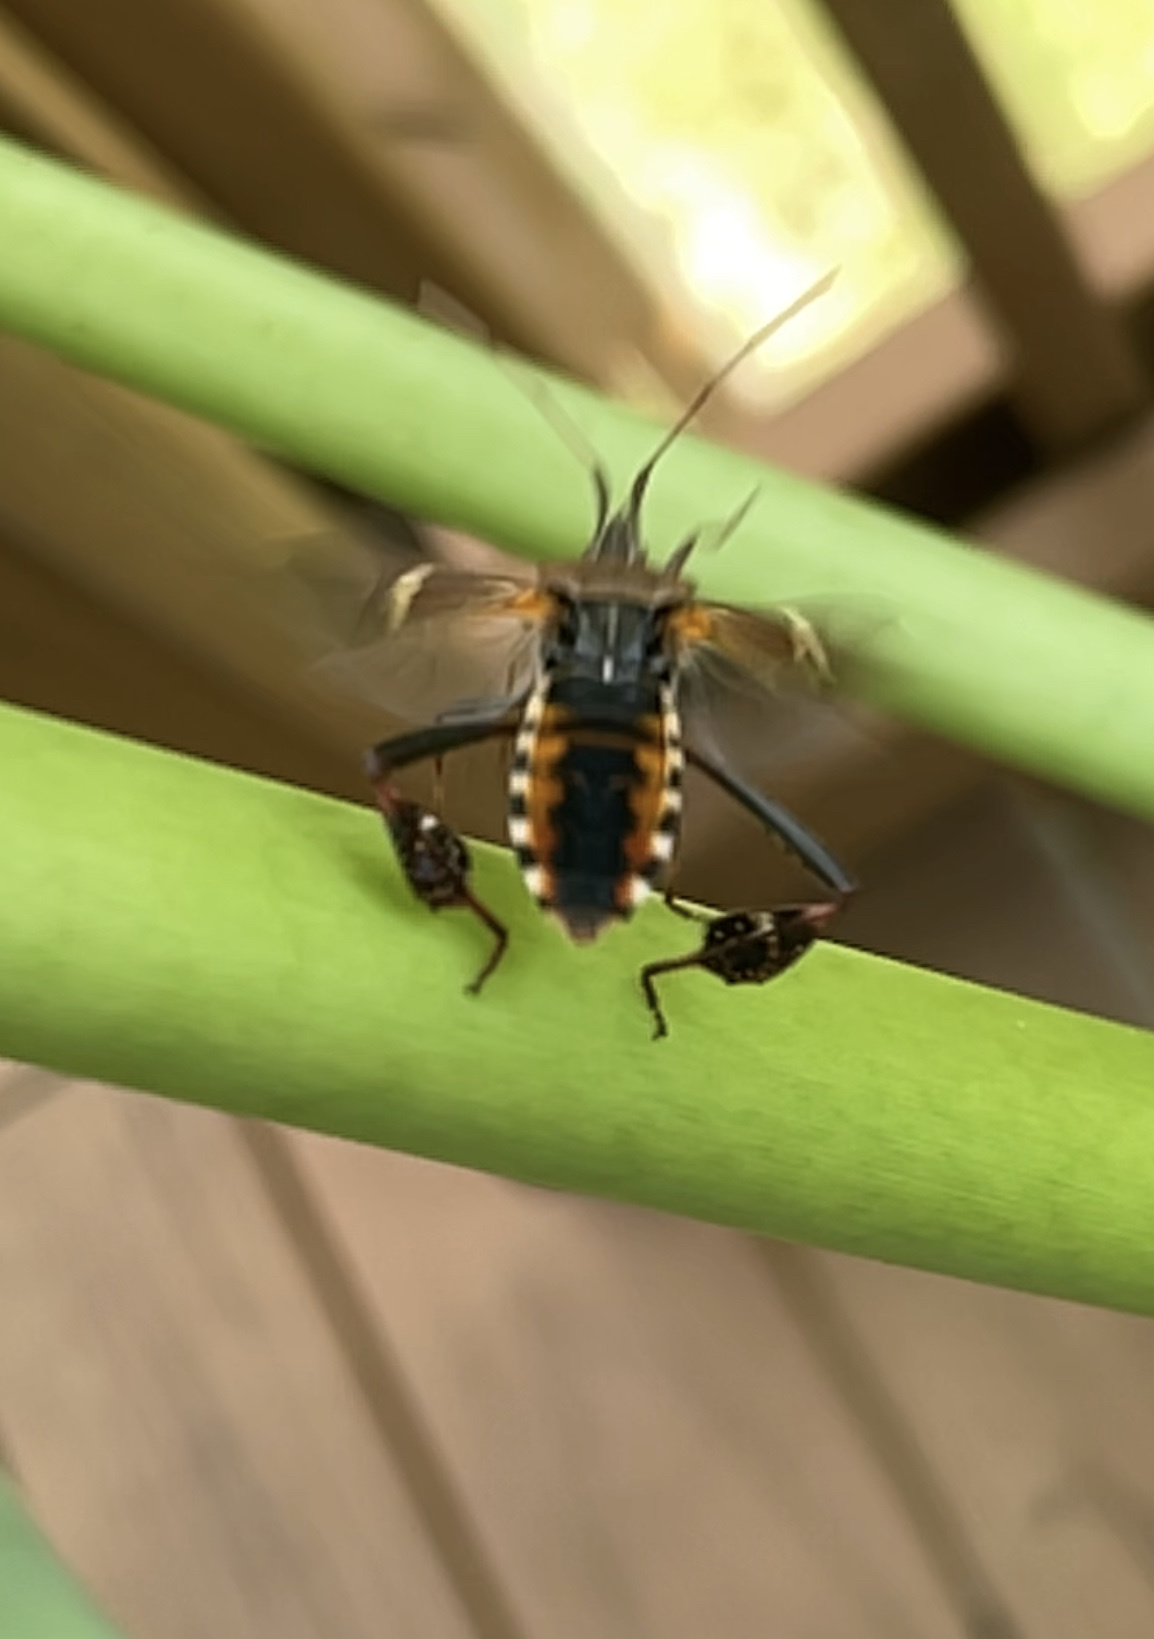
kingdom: Animalia
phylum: Arthropoda
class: Insecta
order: Hemiptera
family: Coreidae
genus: Leptoglossus
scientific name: Leptoglossus clypealis
